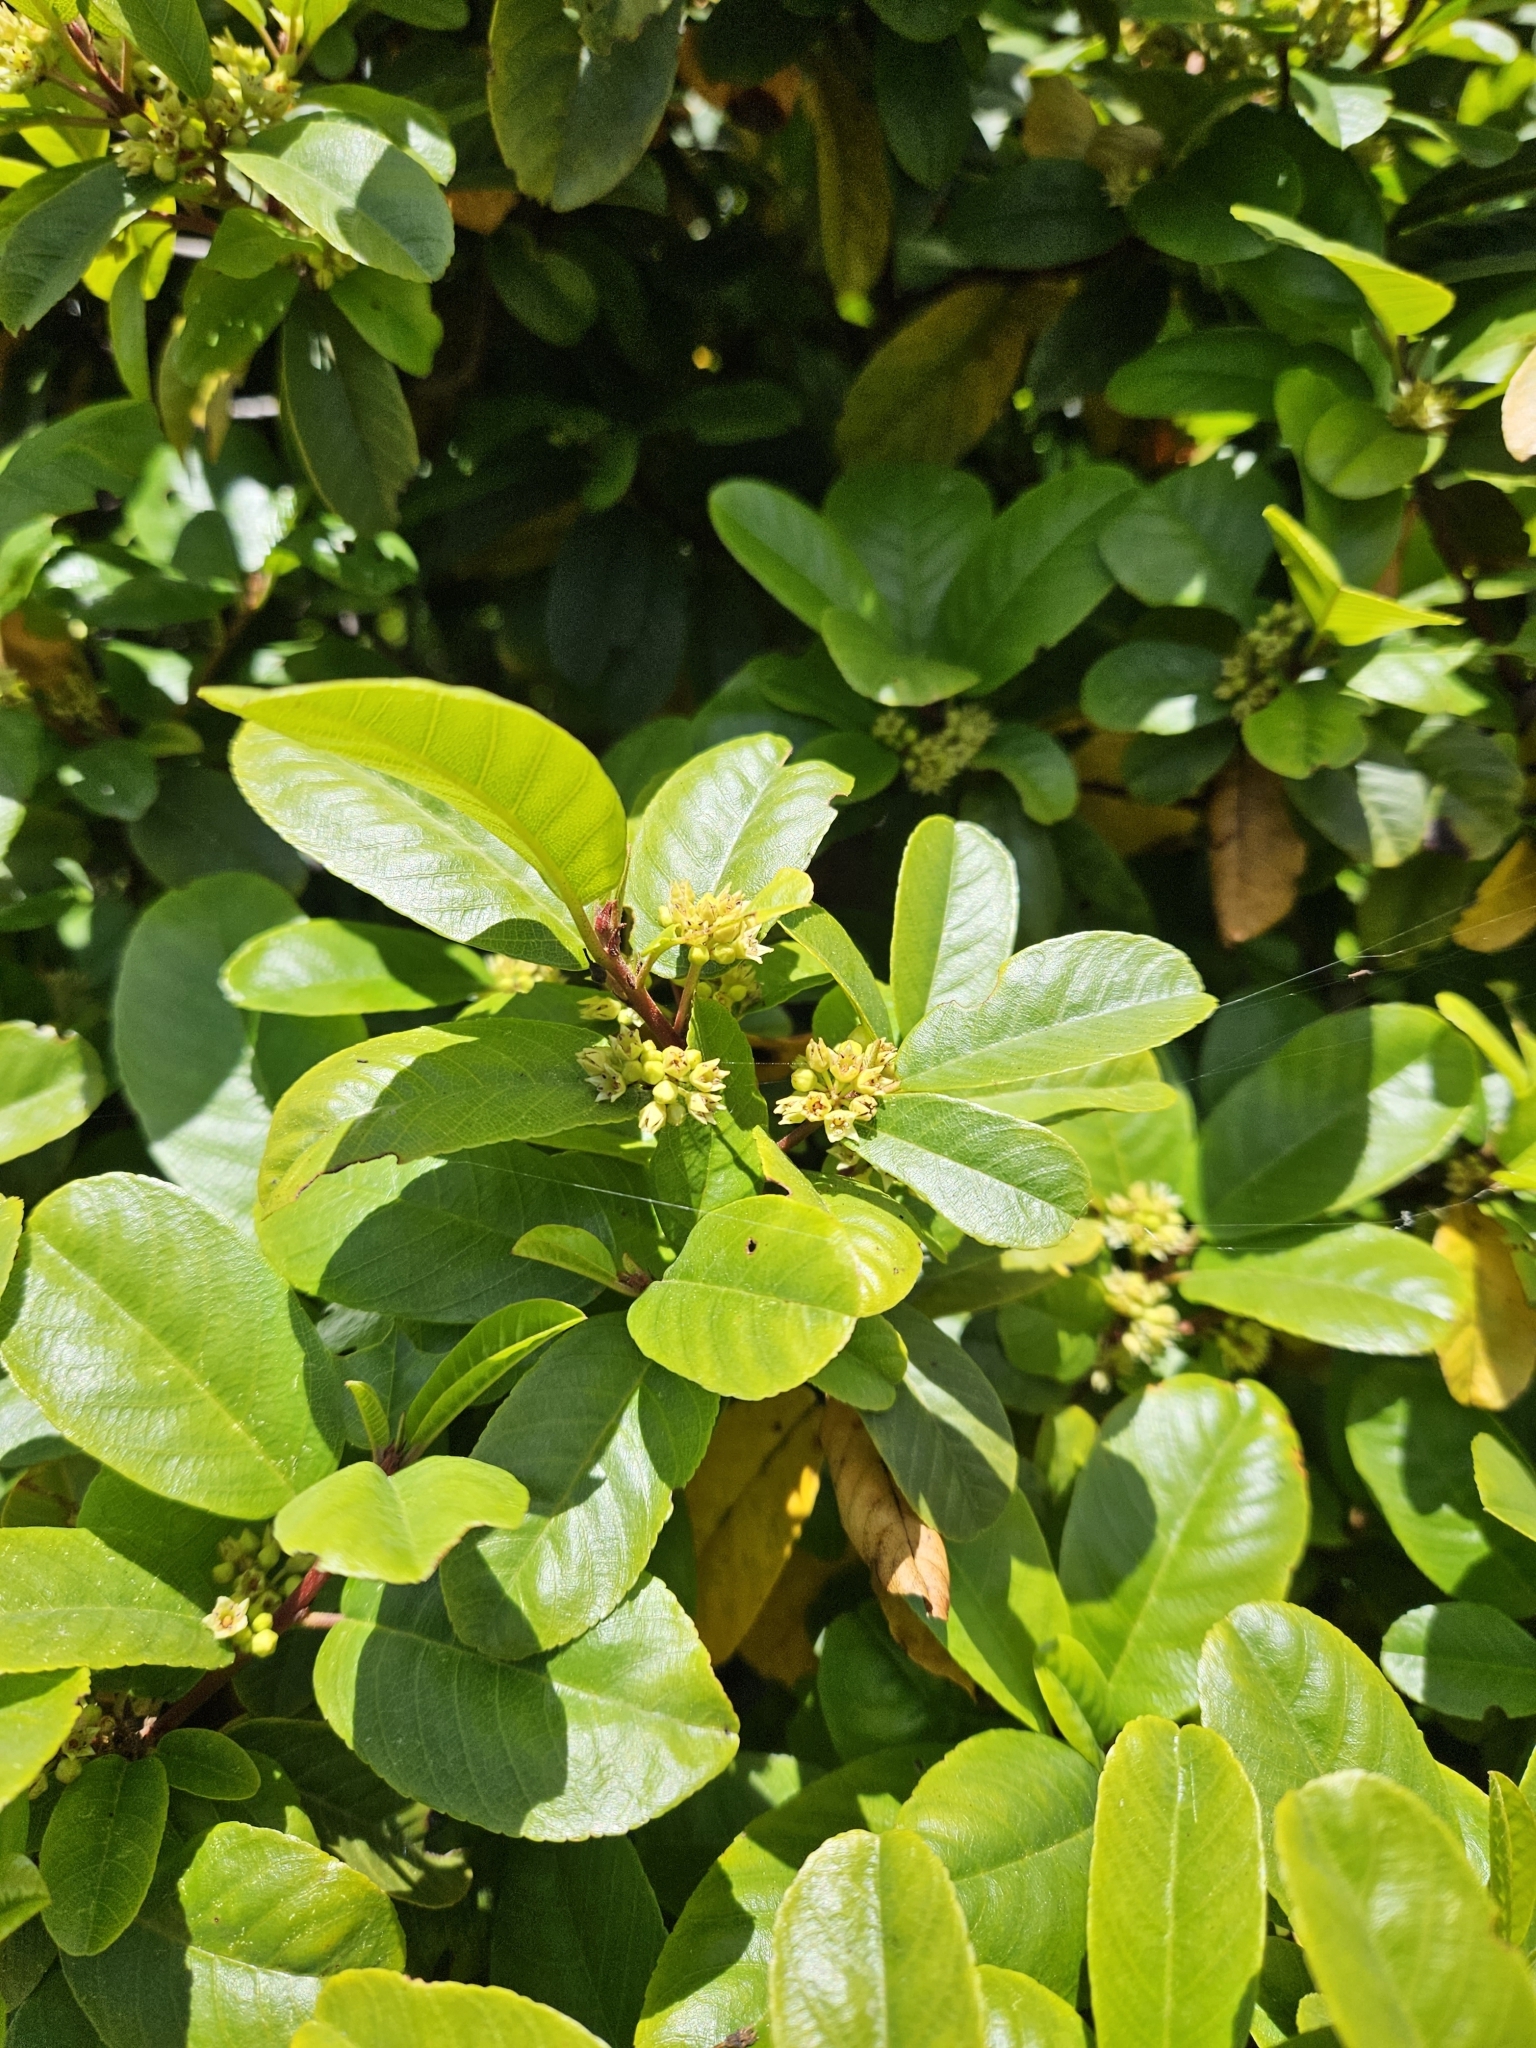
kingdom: Plantae
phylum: Tracheophyta
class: Magnoliopsida
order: Rosales
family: Rhamnaceae
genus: Frangula
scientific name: Frangula californica
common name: California buckthorn
